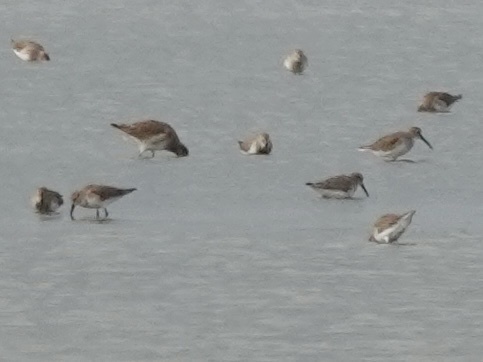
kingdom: Animalia
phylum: Chordata
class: Aves
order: Charadriiformes
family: Scolopacidae
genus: Calidris
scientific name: Calidris alpina
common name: Dunlin
